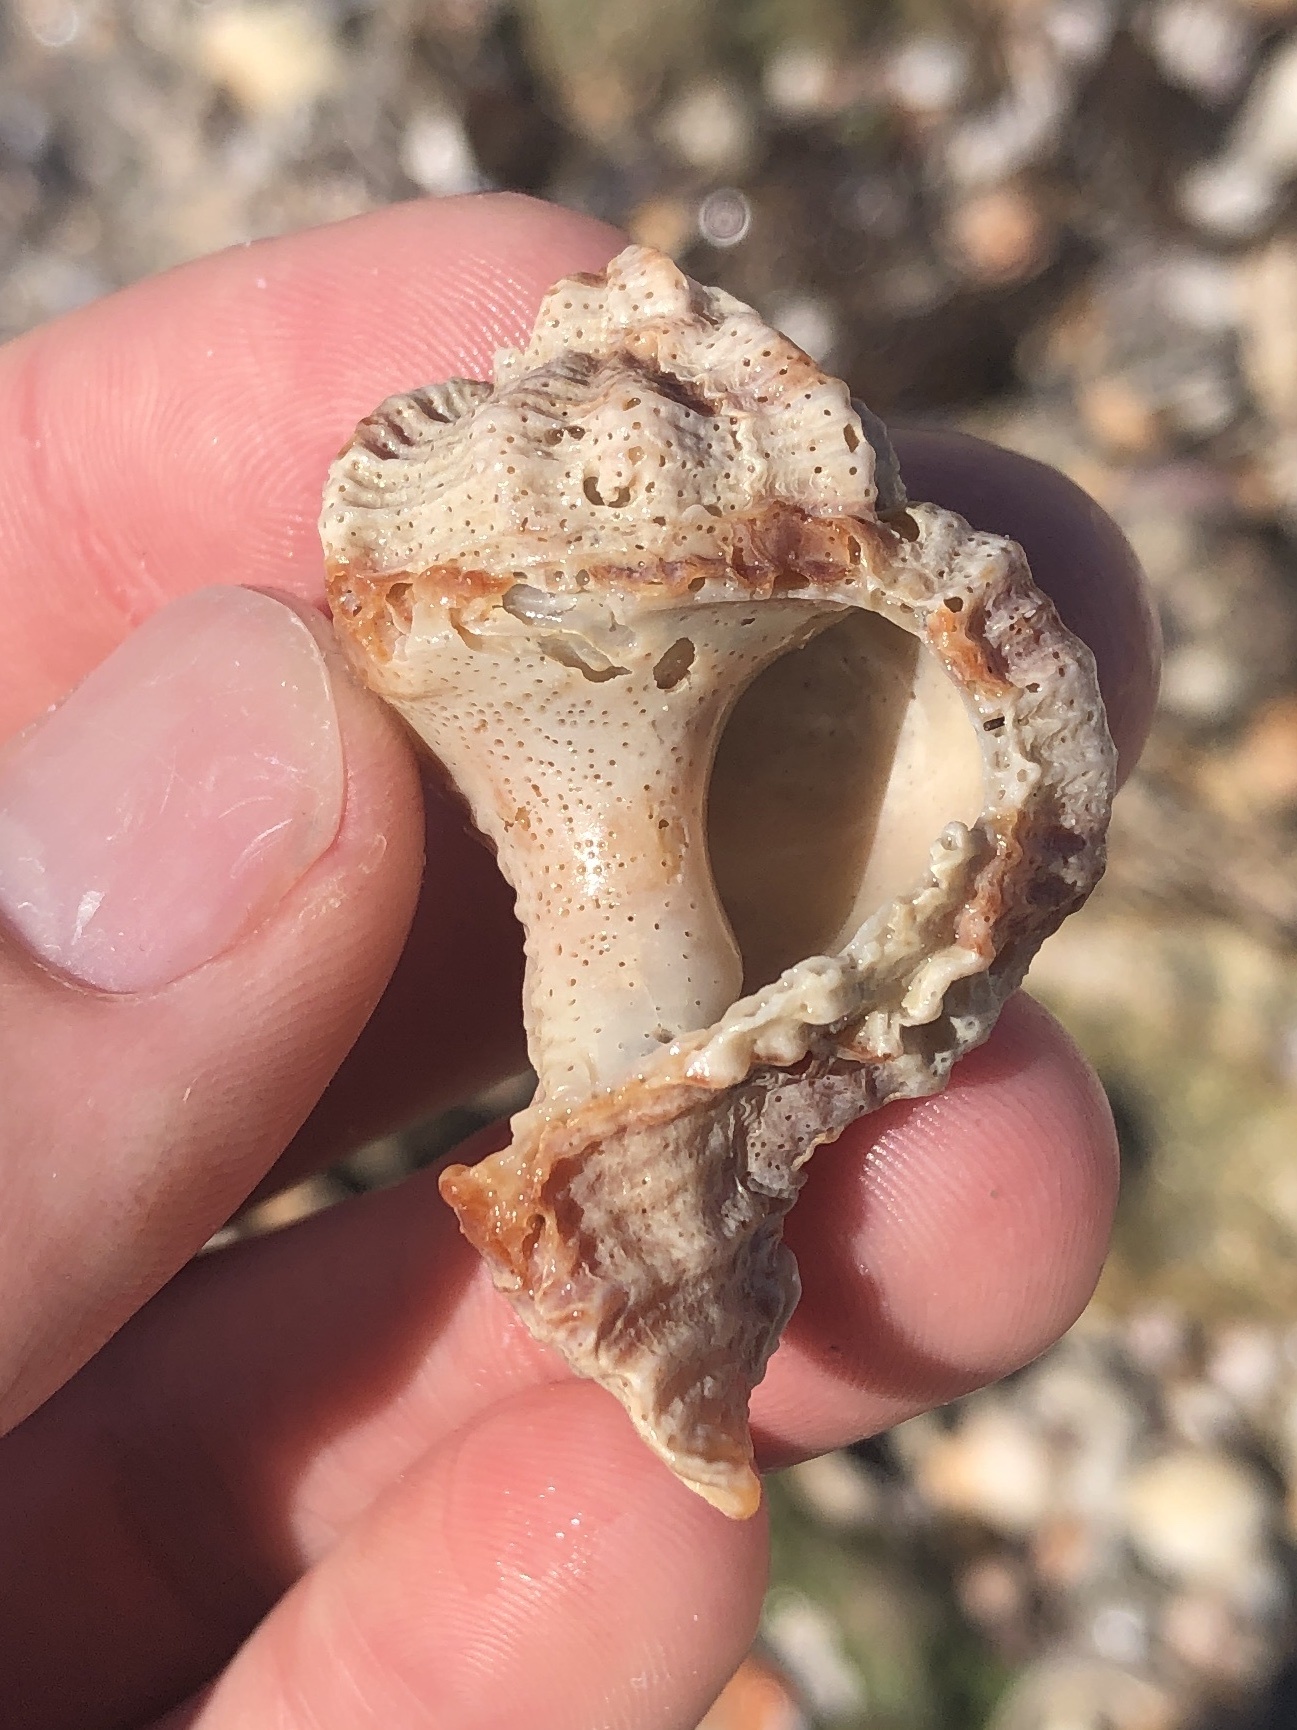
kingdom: Animalia
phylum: Mollusca
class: Gastropoda
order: Neogastropoda
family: Muricidae
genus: Phyllonotus
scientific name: Phyllonotus pomum
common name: Apple murex
